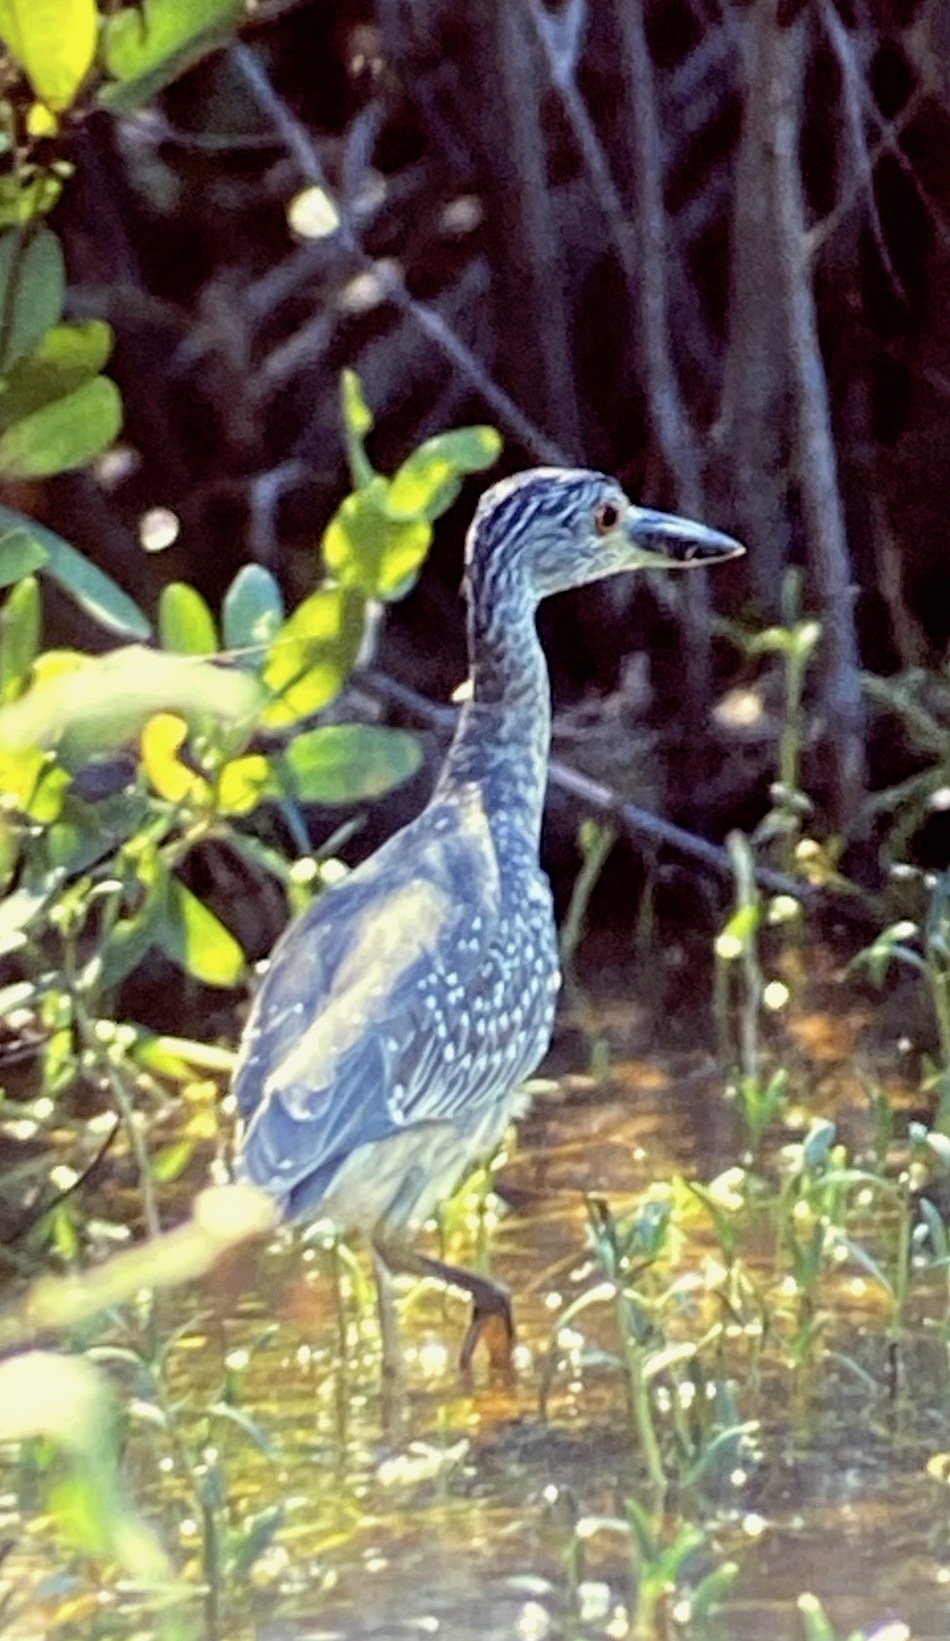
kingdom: Animalia
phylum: Chordata
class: Aves
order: Pelecaniformes
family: Ardeidae
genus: Nyctanassa
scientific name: Nyctanassa violacea
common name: Yellow-crowned night heron
